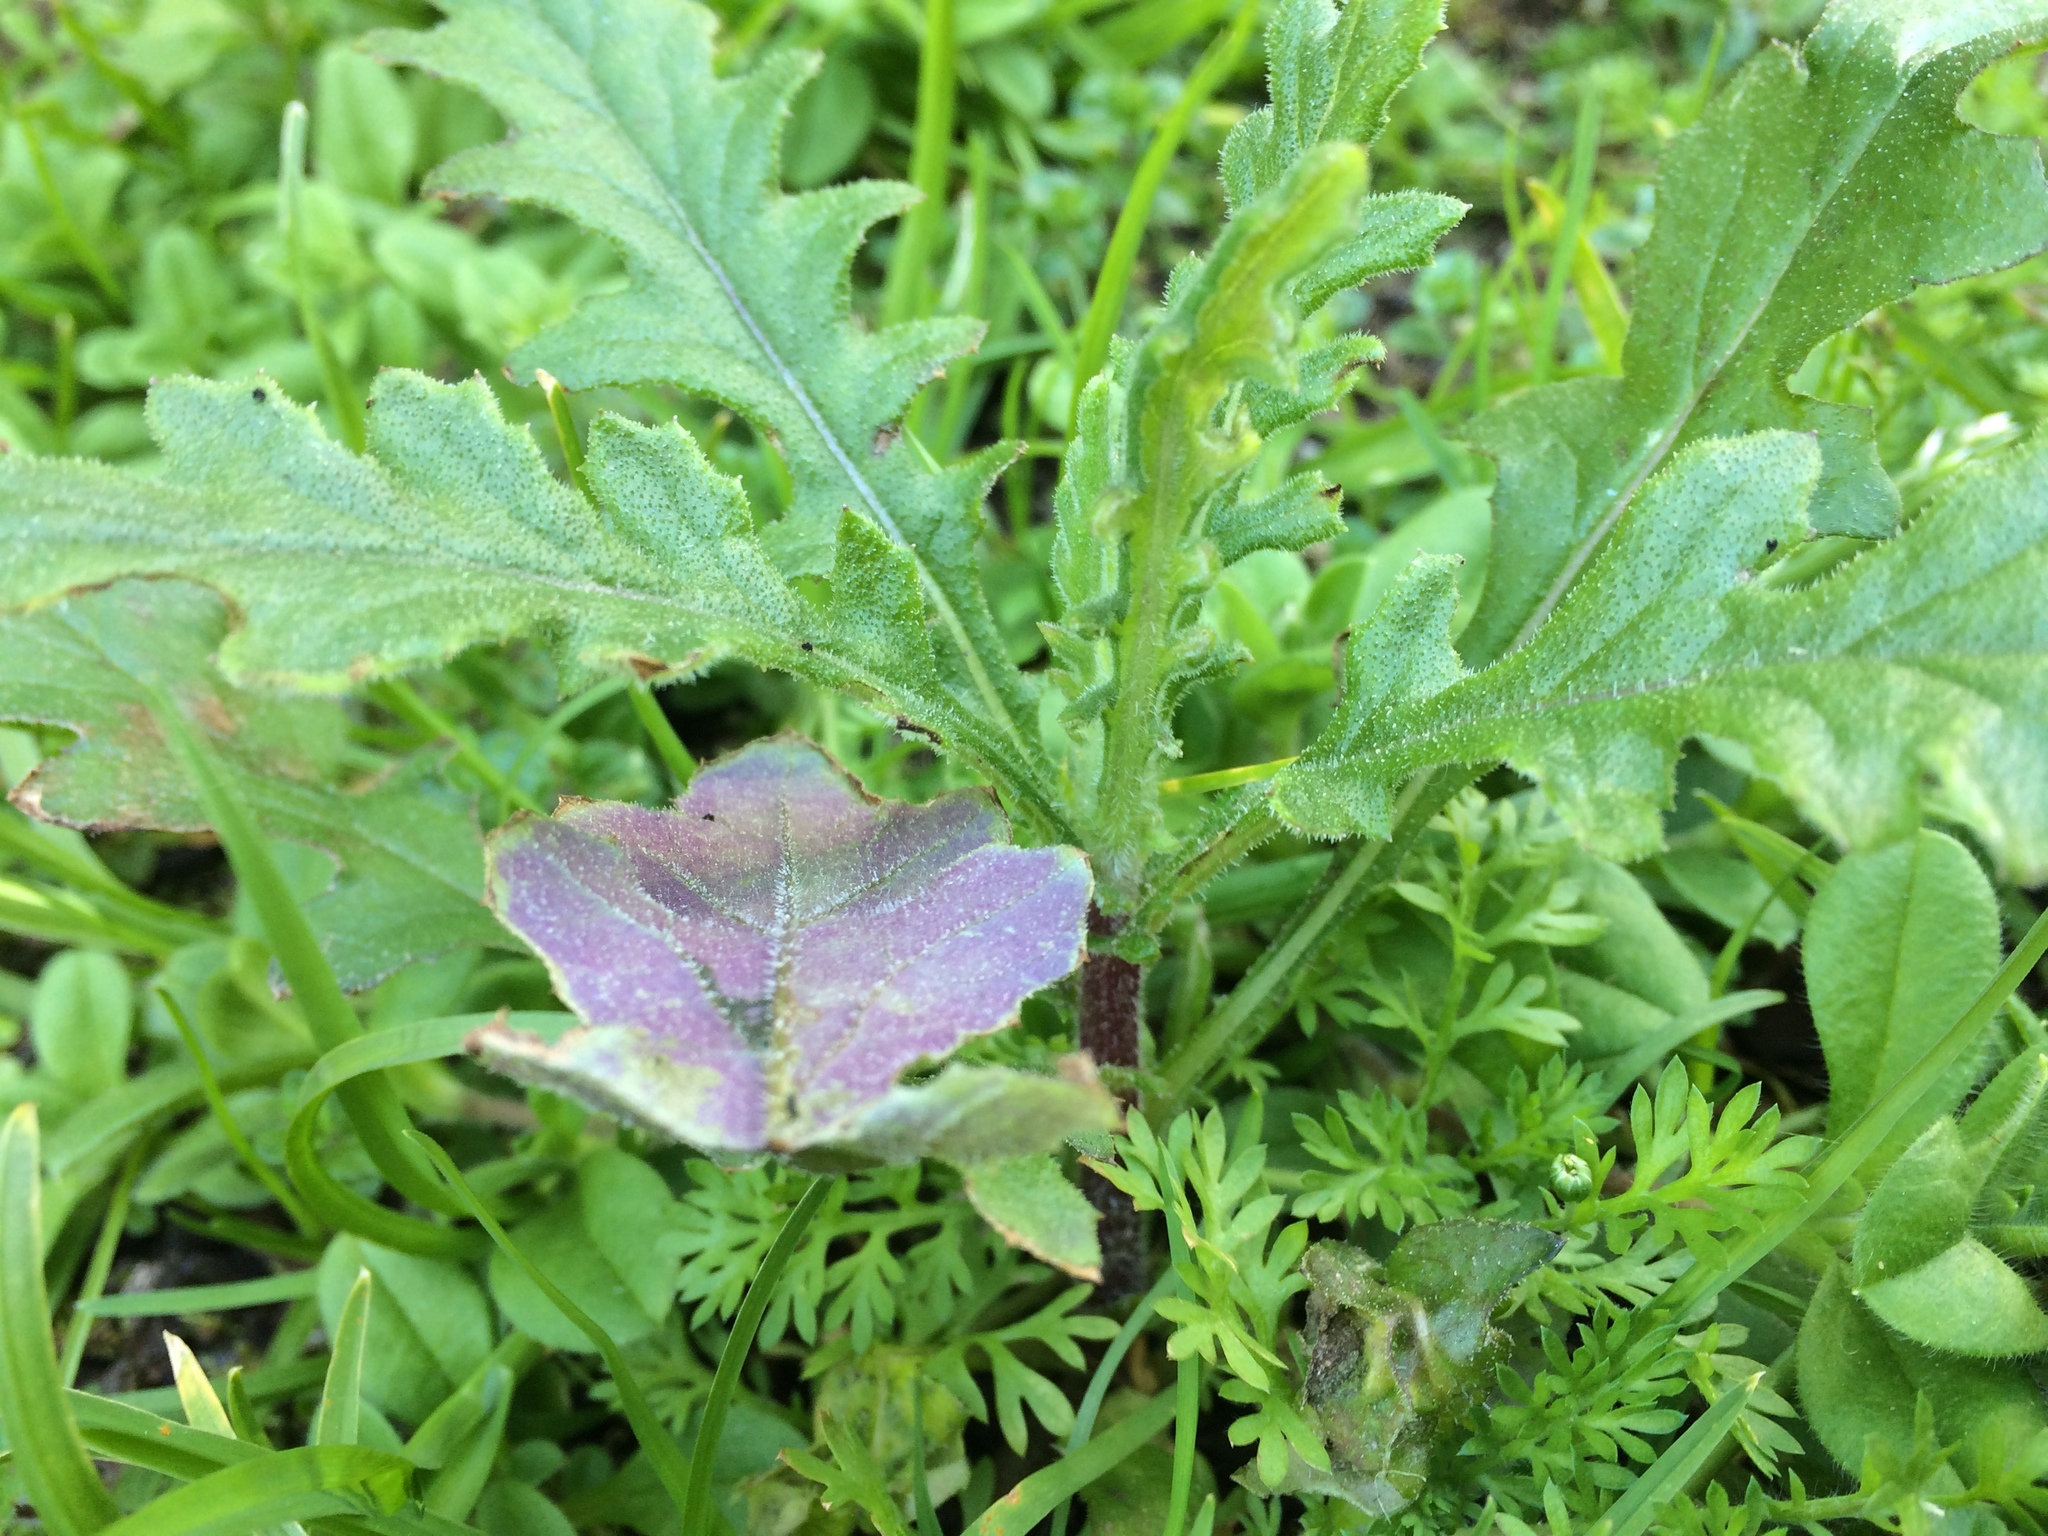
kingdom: Plantae
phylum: Tracheophyta
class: Magnoliopsida
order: Asterales
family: Asteraceae
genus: Senecio
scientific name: Senecio glomeratus
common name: Cutleaf burnweed
